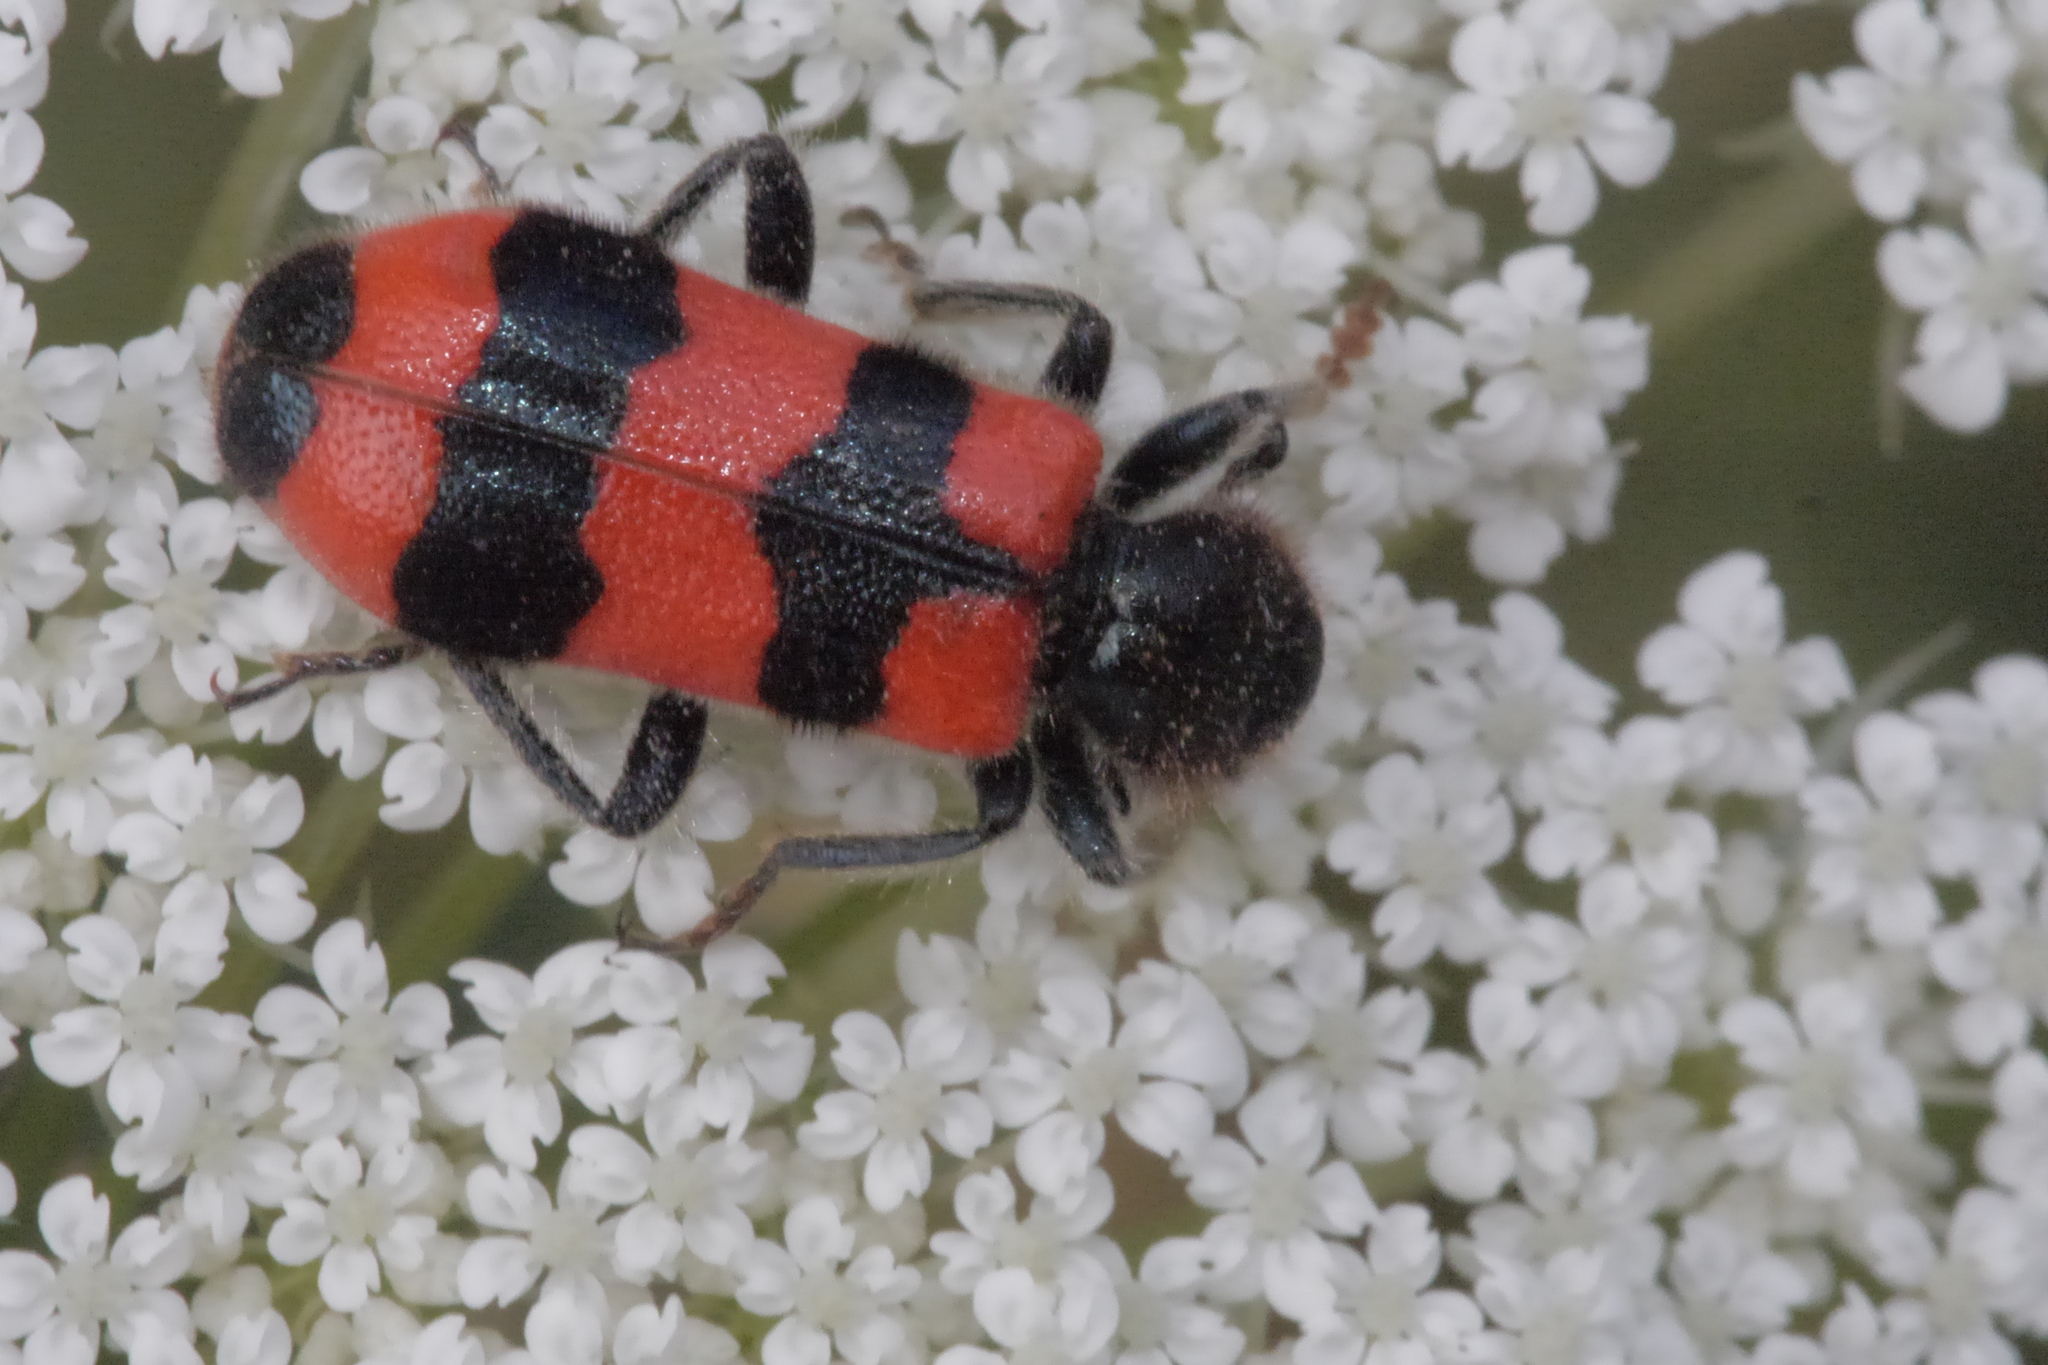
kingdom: Animalia
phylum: Arthropoda
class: Insecta
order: Coleoptera
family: Cleridae
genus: Trichodes
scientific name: Trichodes apiarius
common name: Bee-eating beetle
